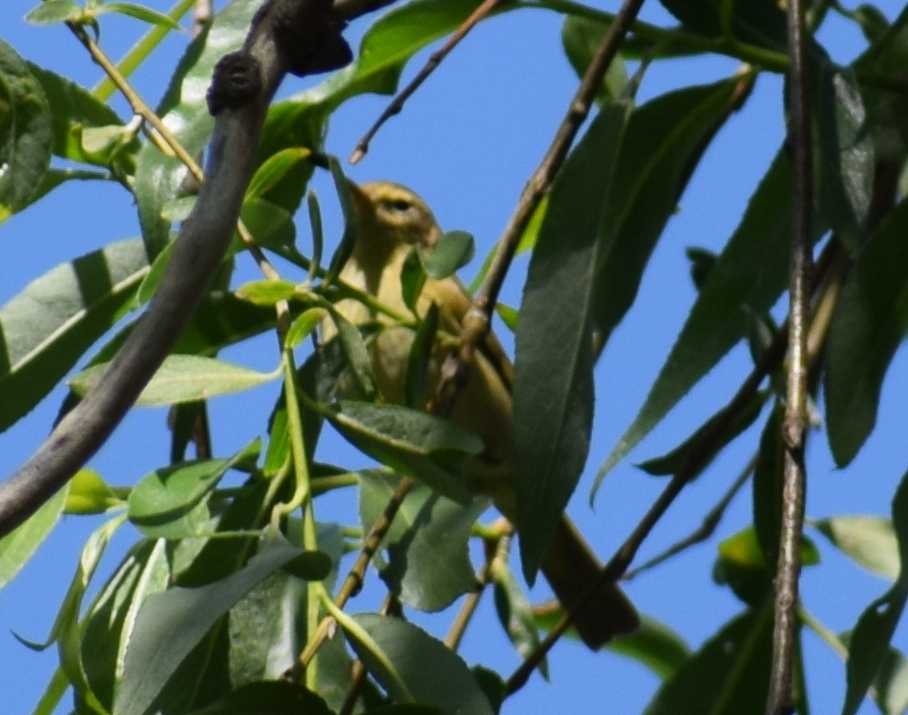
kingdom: Animalia
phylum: Chordata
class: Aves
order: Passeriformes
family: Phylloscopidae
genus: Phylloscopus
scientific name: Phylloscopus collybita
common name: Common chiffchaff
